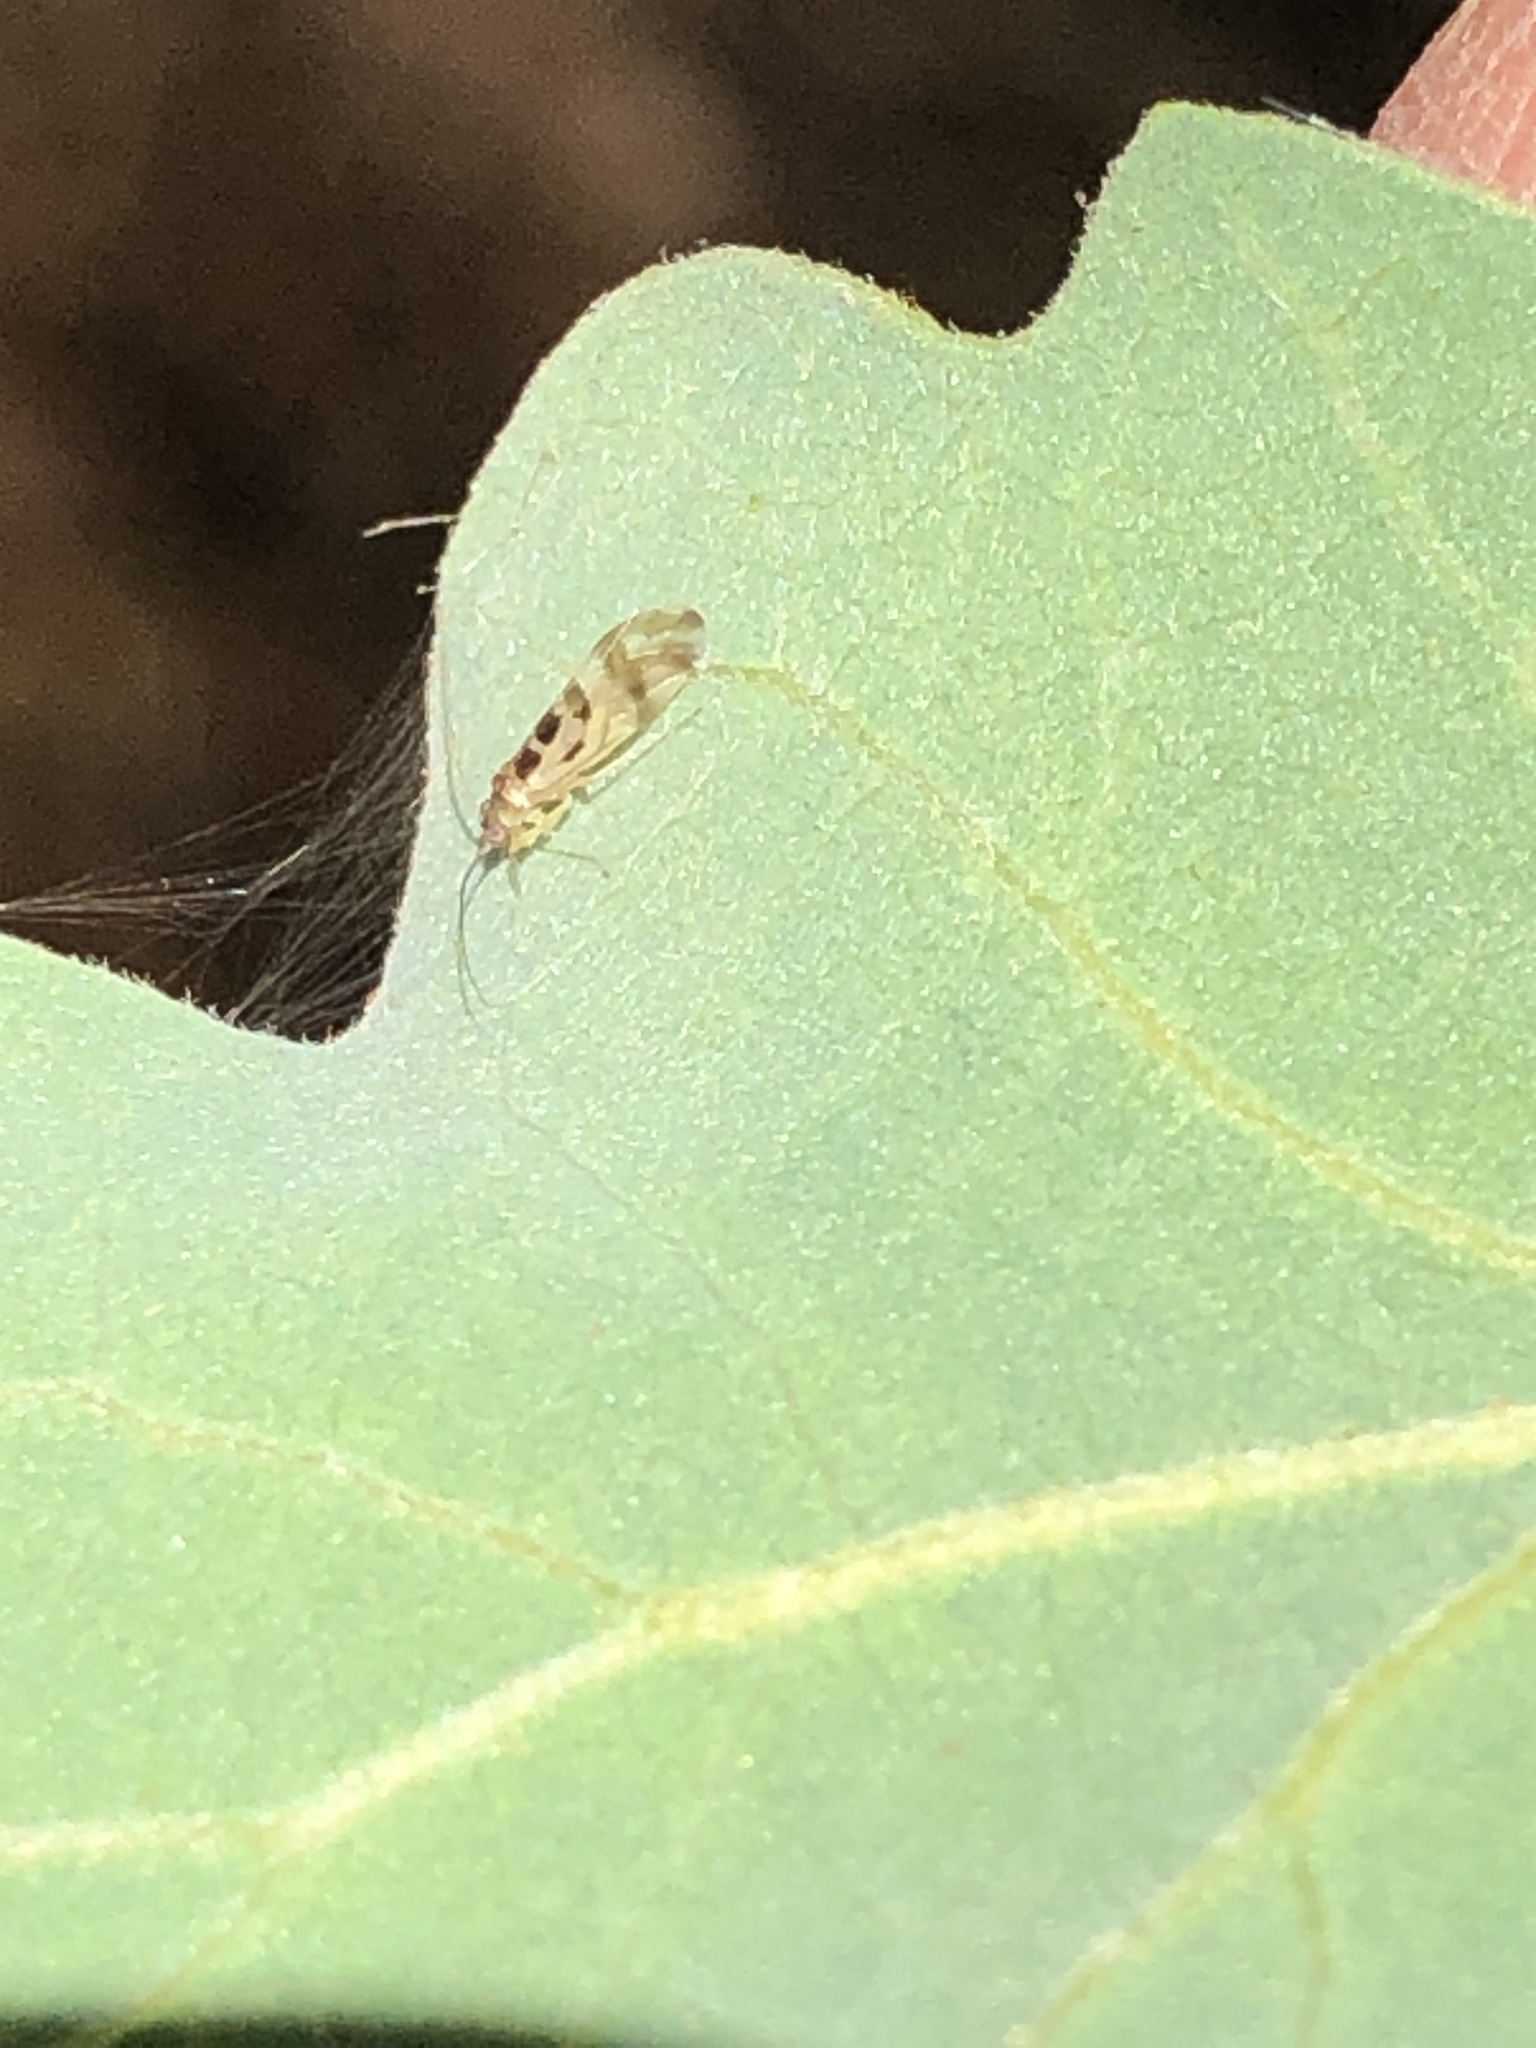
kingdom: Animalia
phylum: Arthropoda
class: Insecta
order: Psocodea
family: Stenopsocidae
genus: Graphopsocus
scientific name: Graphopsocus cruciatus
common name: Lizard bark louse
